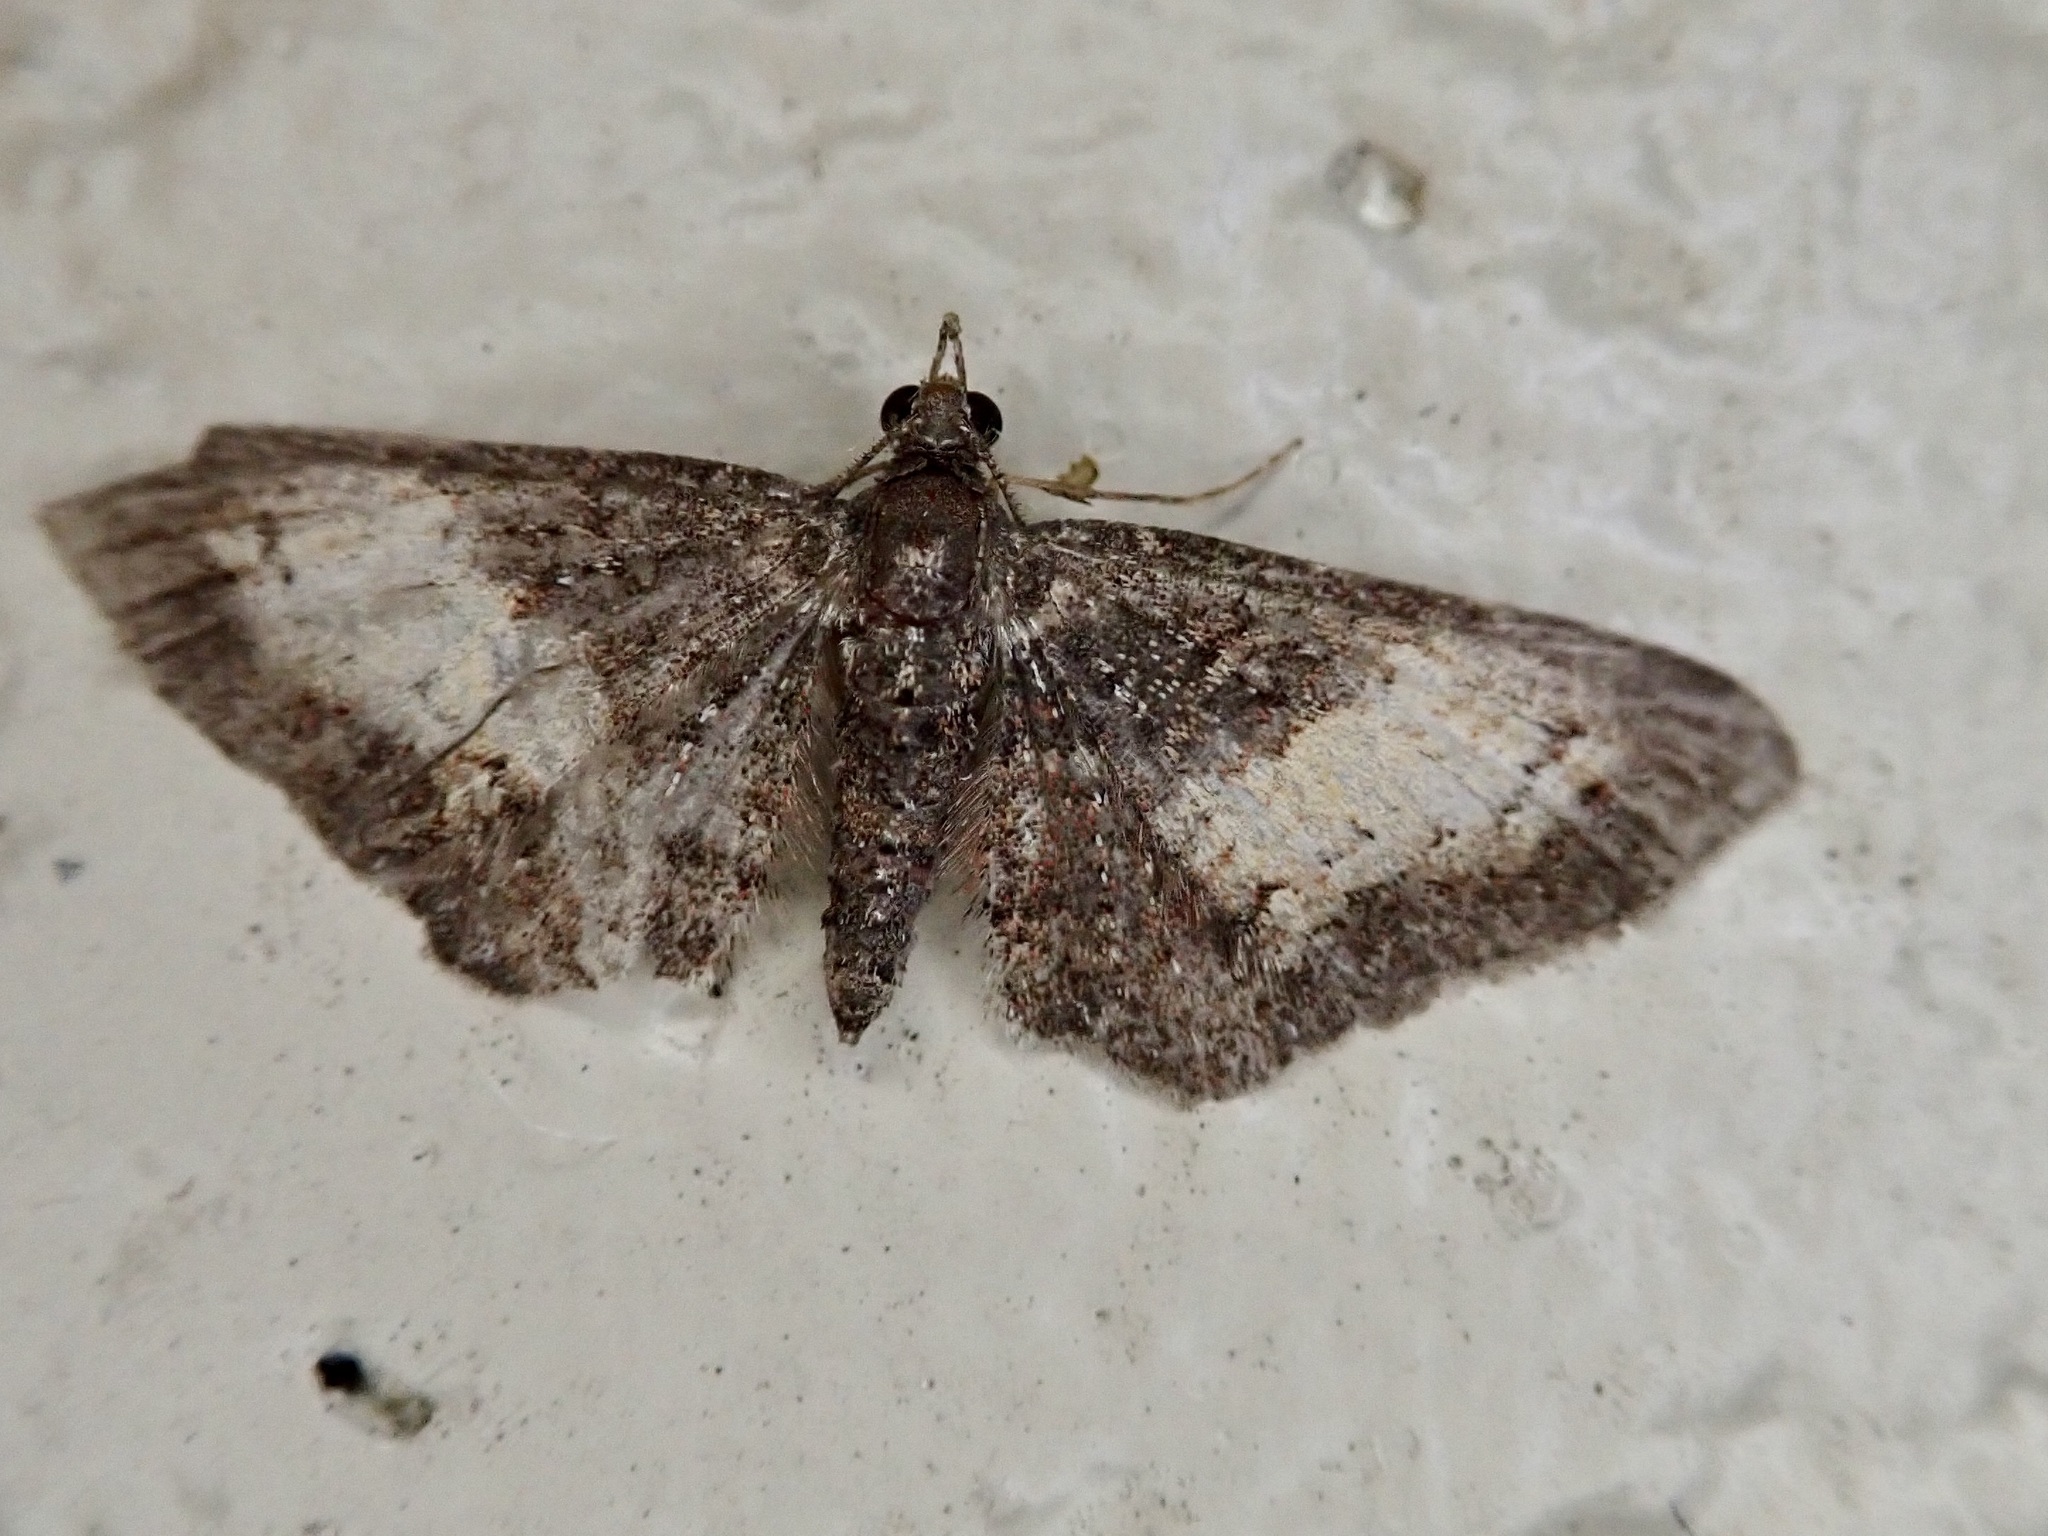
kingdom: Animalia
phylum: Arthropoda
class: Insecta
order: Lepidoptera
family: Geometridae
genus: Pasiphilodes
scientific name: Pasiphilodes testulata
